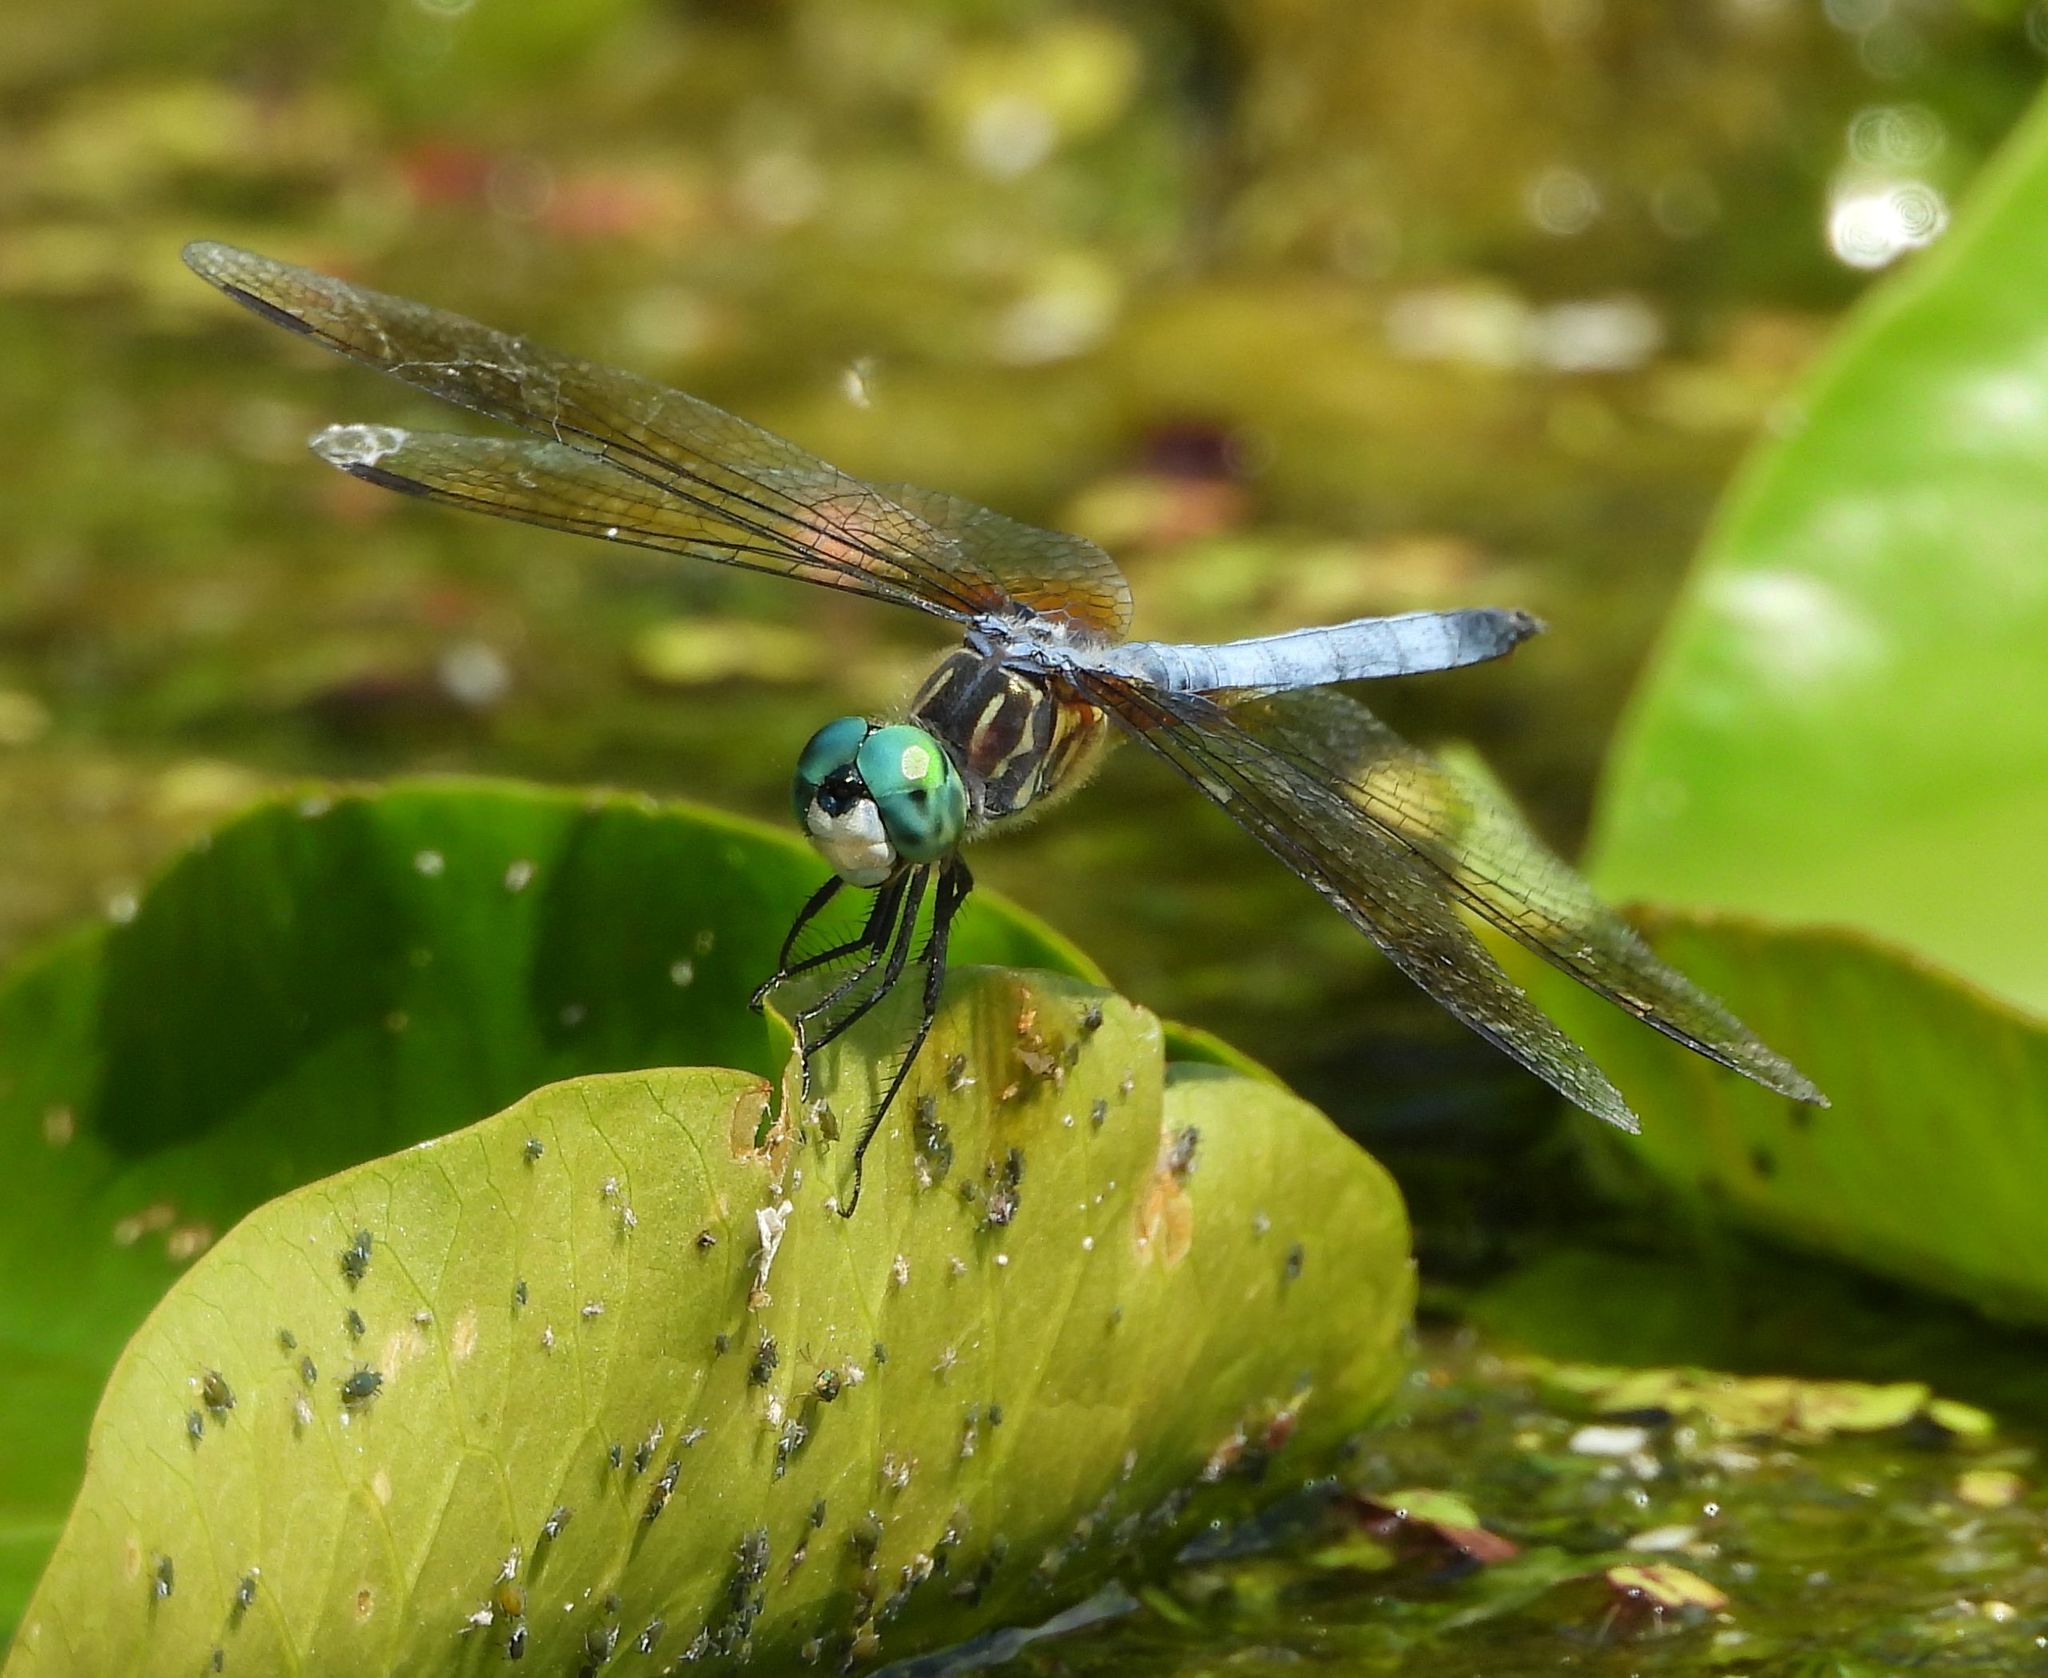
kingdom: Animalia
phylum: Arthropoda
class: Insecta
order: Odonata
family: Libellulidae
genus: Pachydiplax
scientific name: Pachydiplax longipennis
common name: Blue dasher
